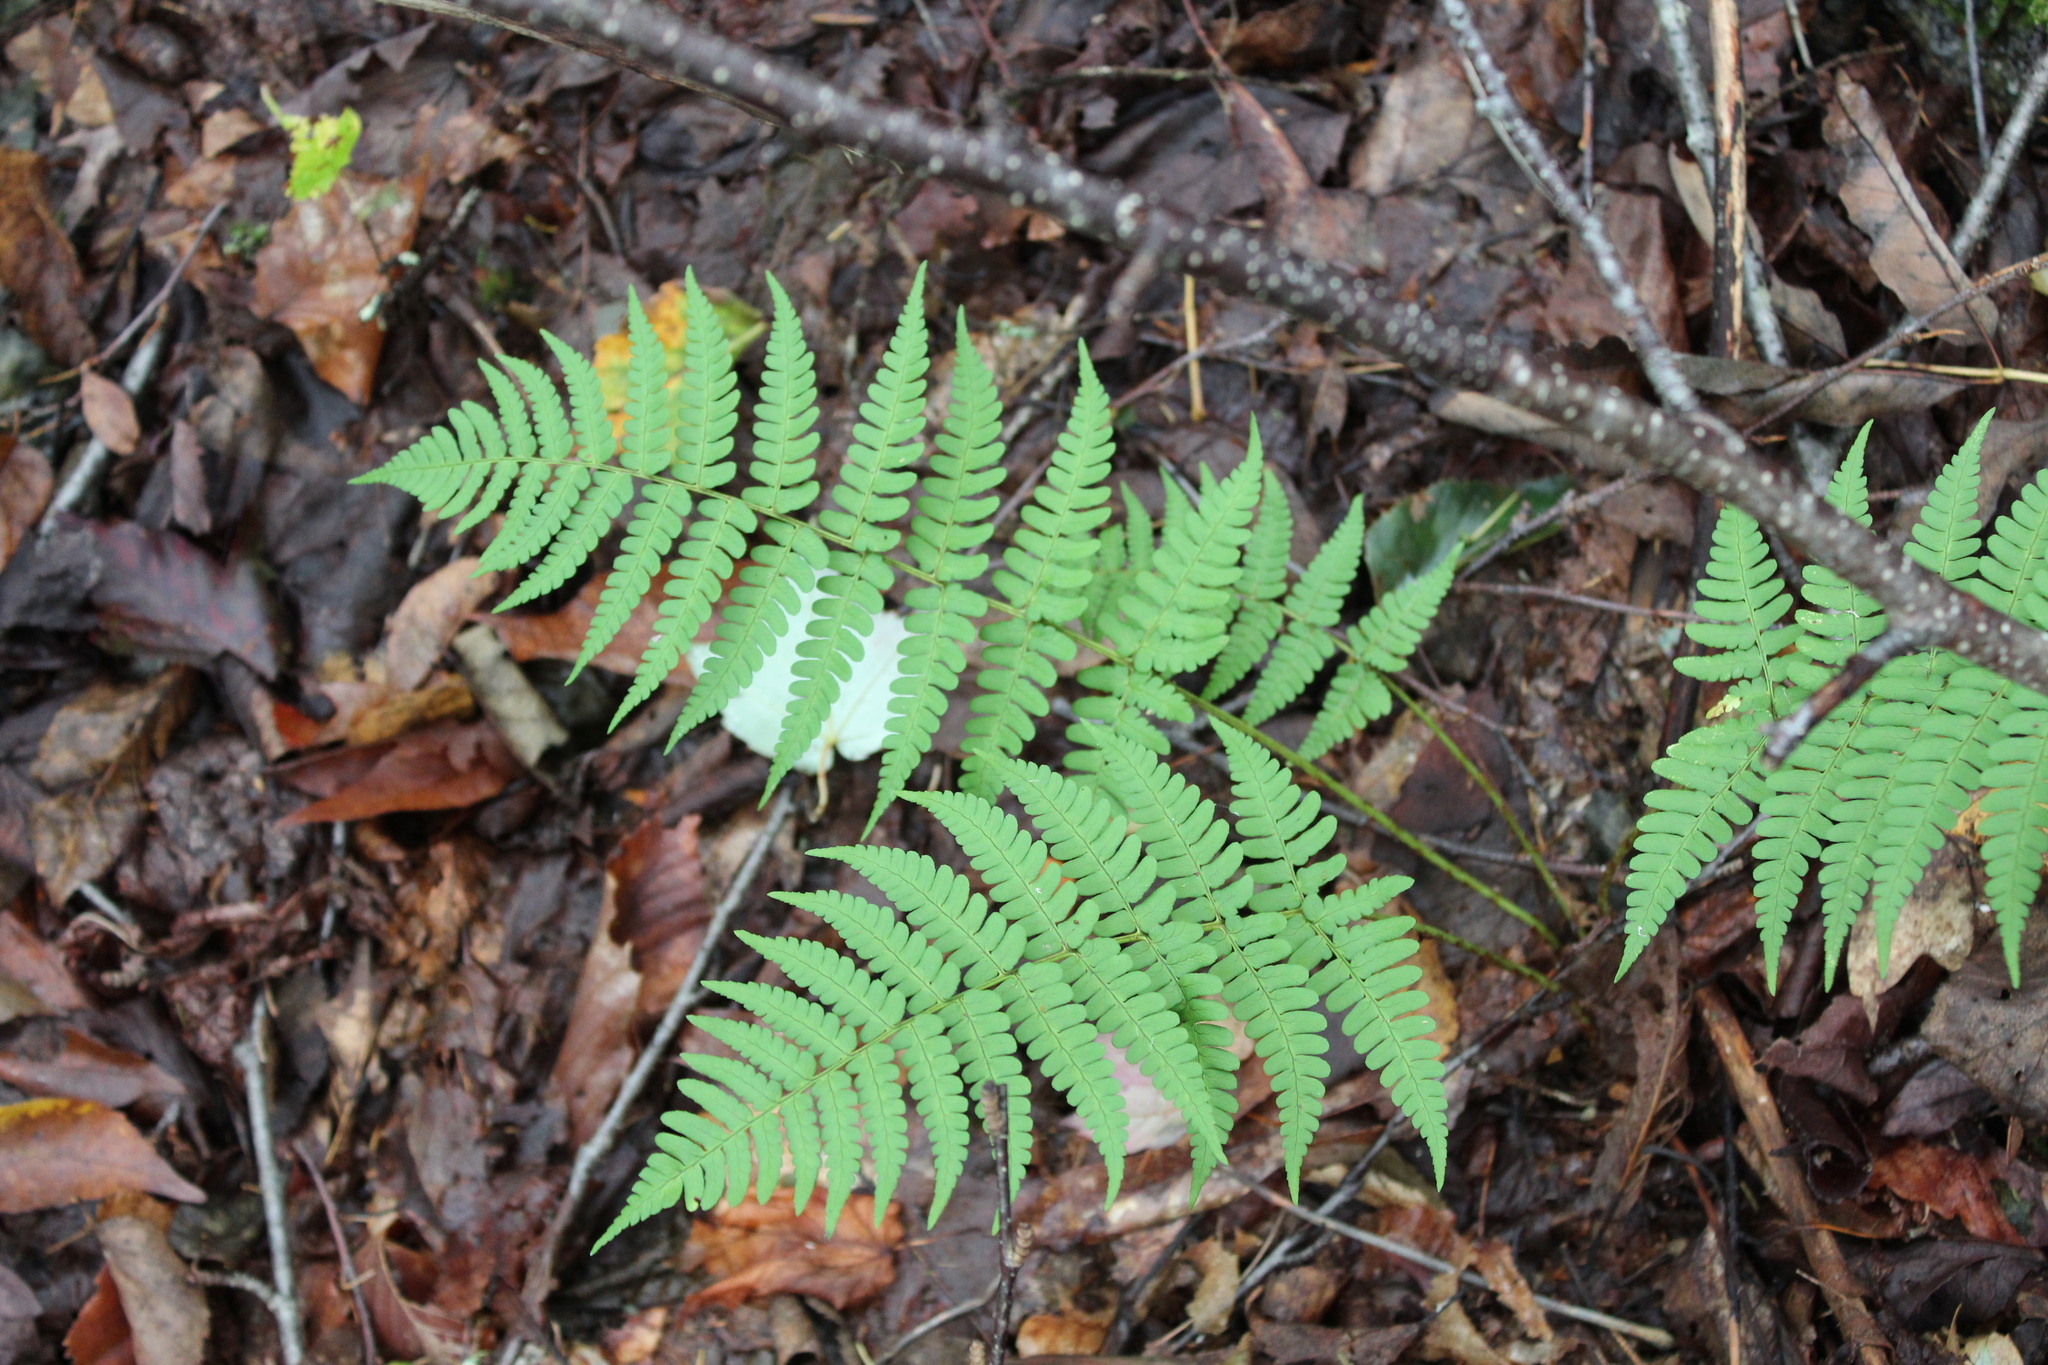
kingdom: Plantae
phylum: Tracheophyta
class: Polypodiopsida
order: Polypodiales
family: Dryopteridaceae
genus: Dryopteris
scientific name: Dryopteris marginalis
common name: Marginal wood fern
